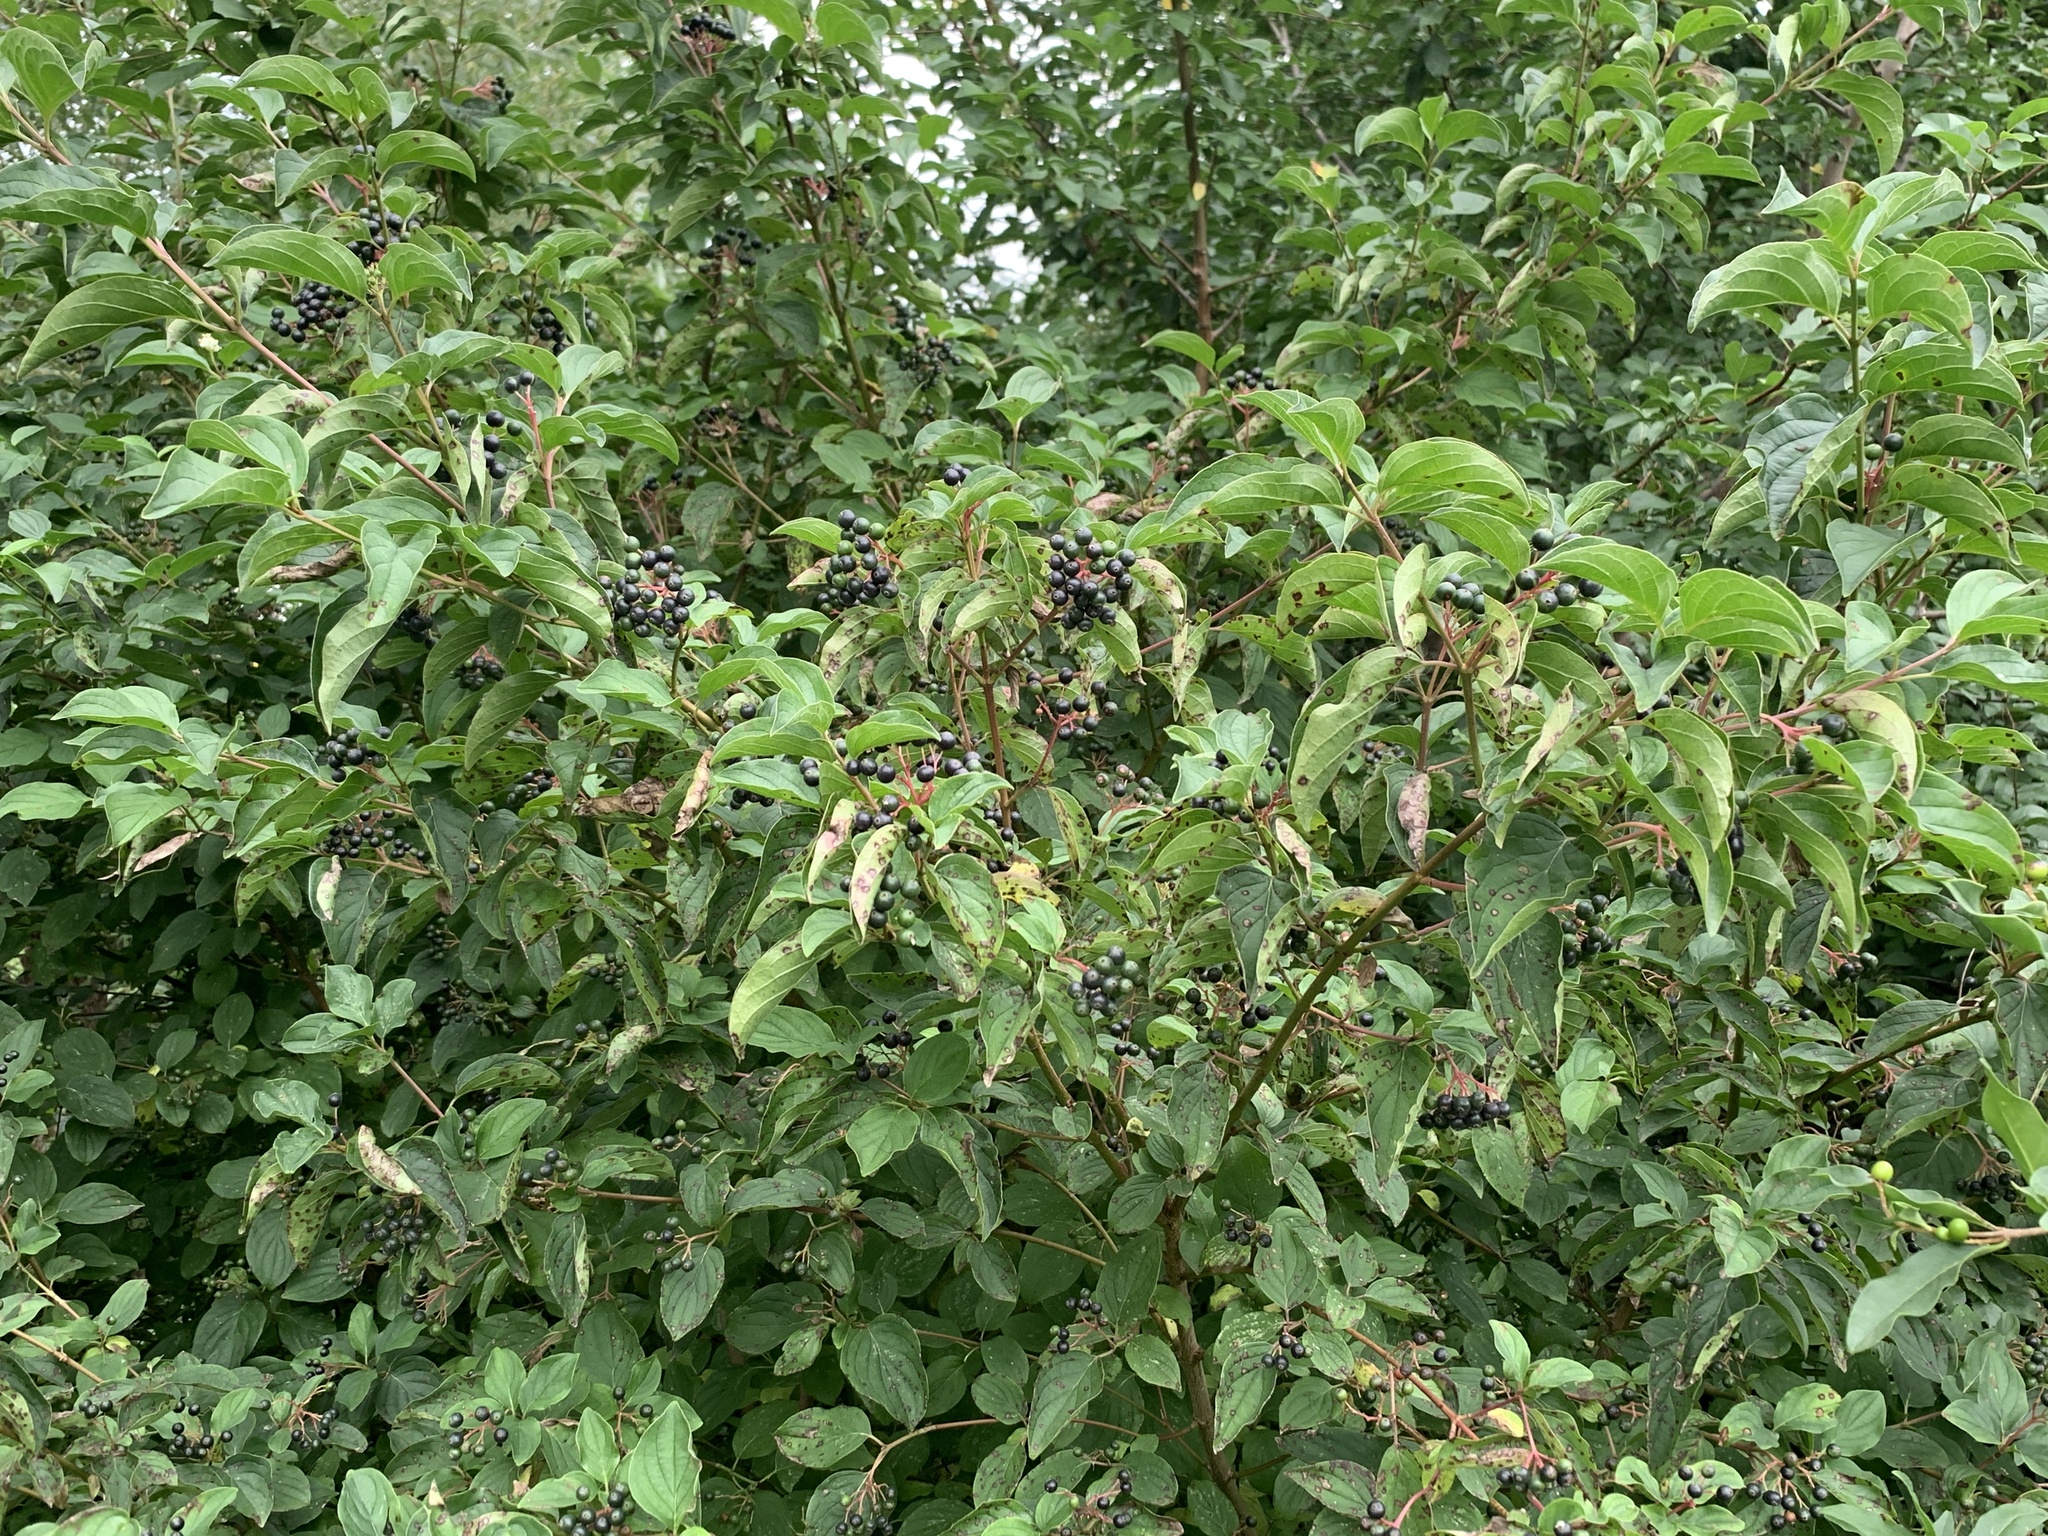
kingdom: Plantae
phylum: Tracheophyta
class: Magnoliopsida
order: Cornales
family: Cornaceae
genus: Cornus
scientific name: Cornus sanguinea
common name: Dogwood
